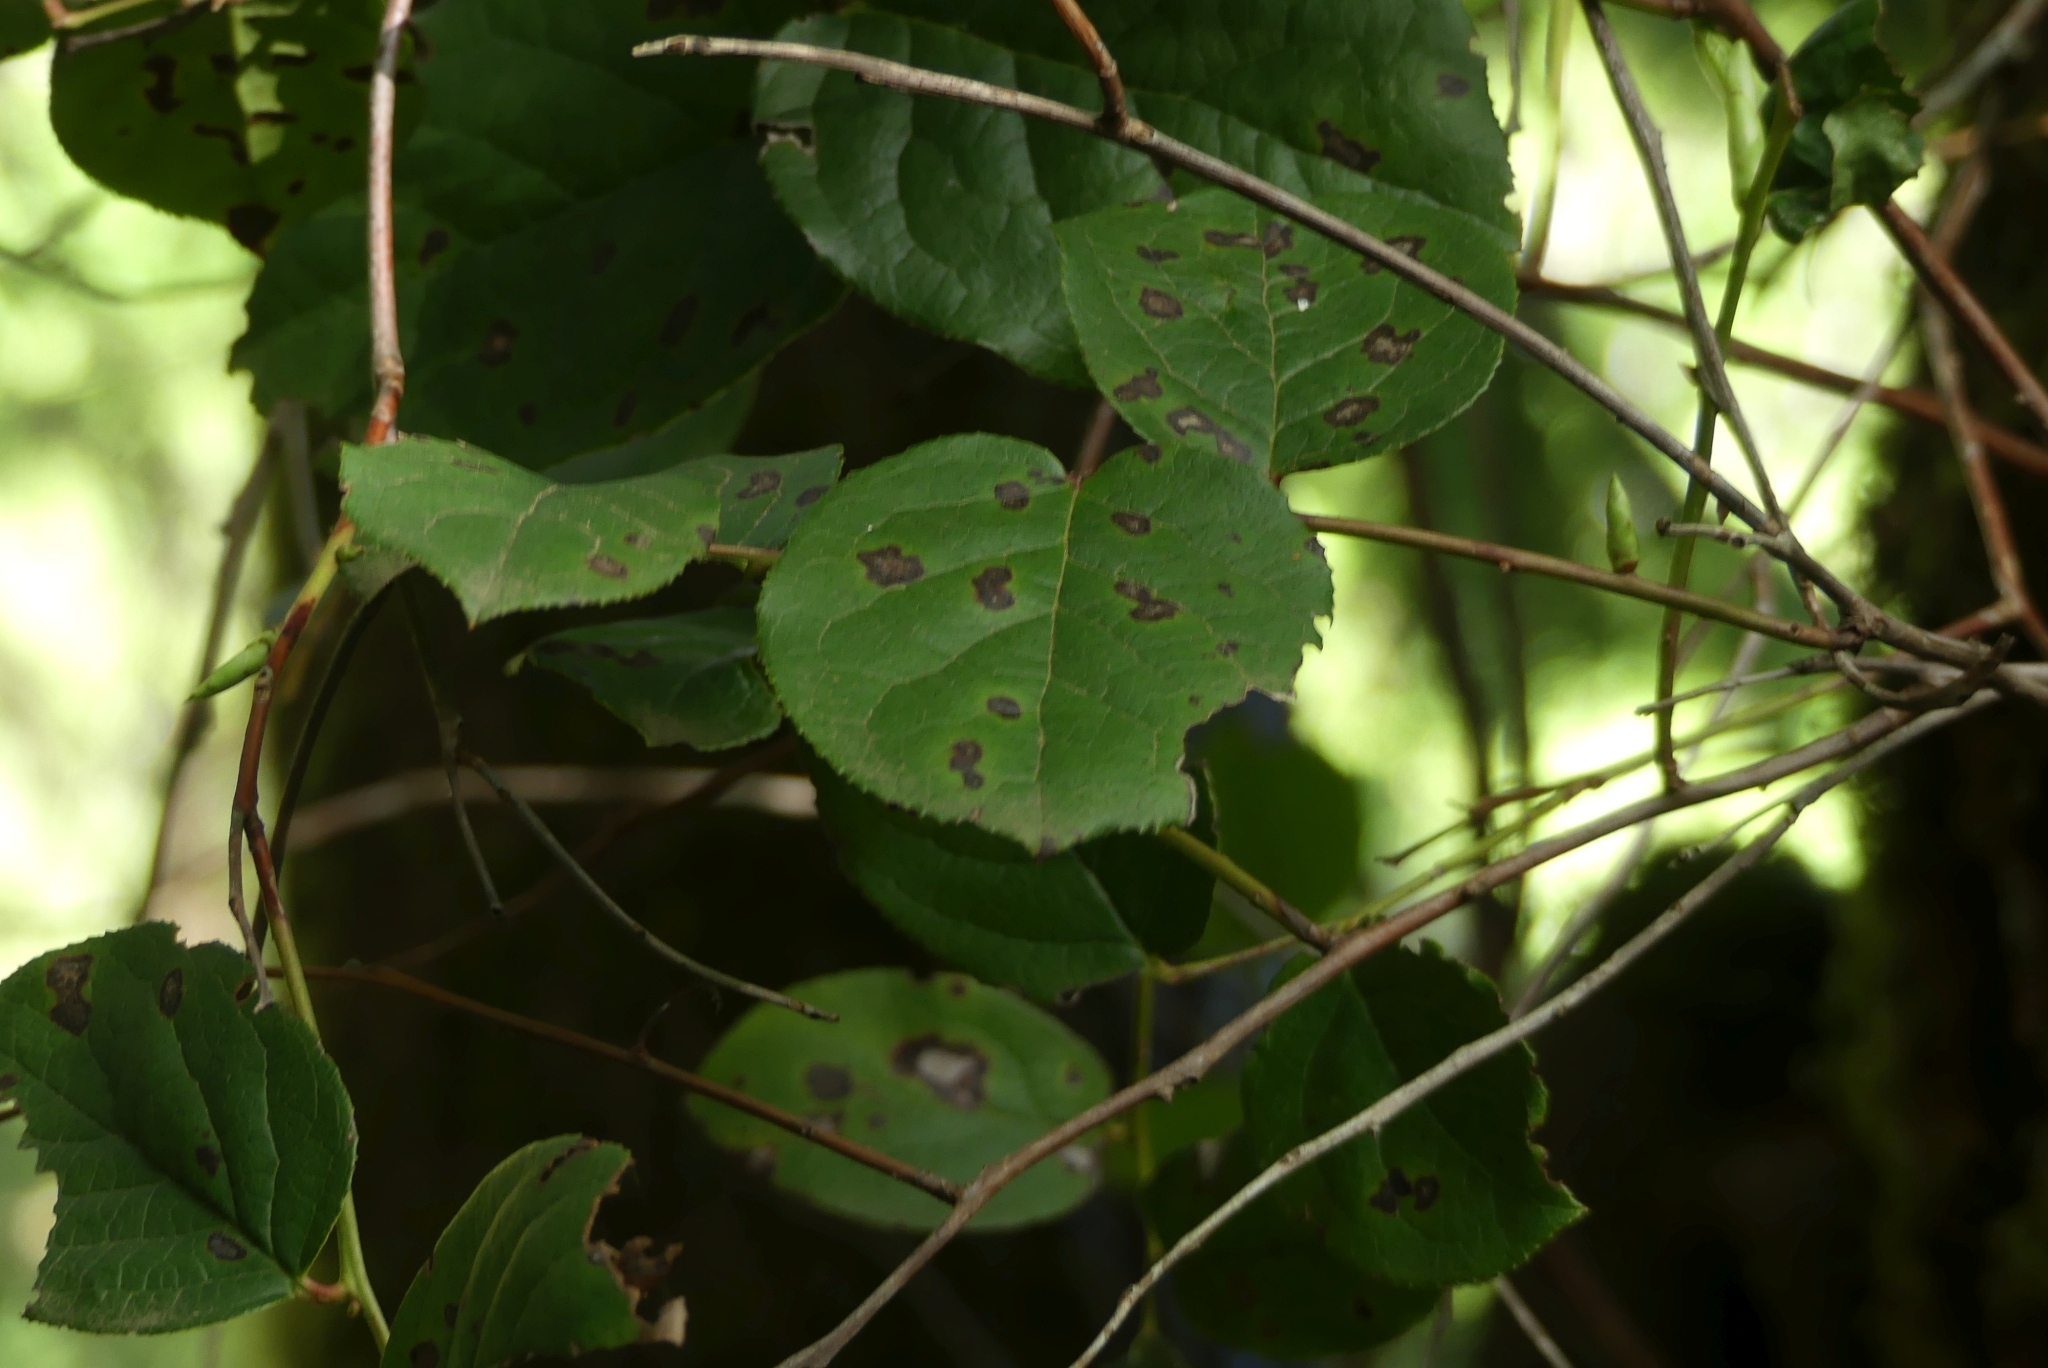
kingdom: Plantae
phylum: Tracheophyta
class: Magnoliopsida
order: Ericales
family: Ericaceae
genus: Gaultheria
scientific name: Gaultheria shallon
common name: Shallon
